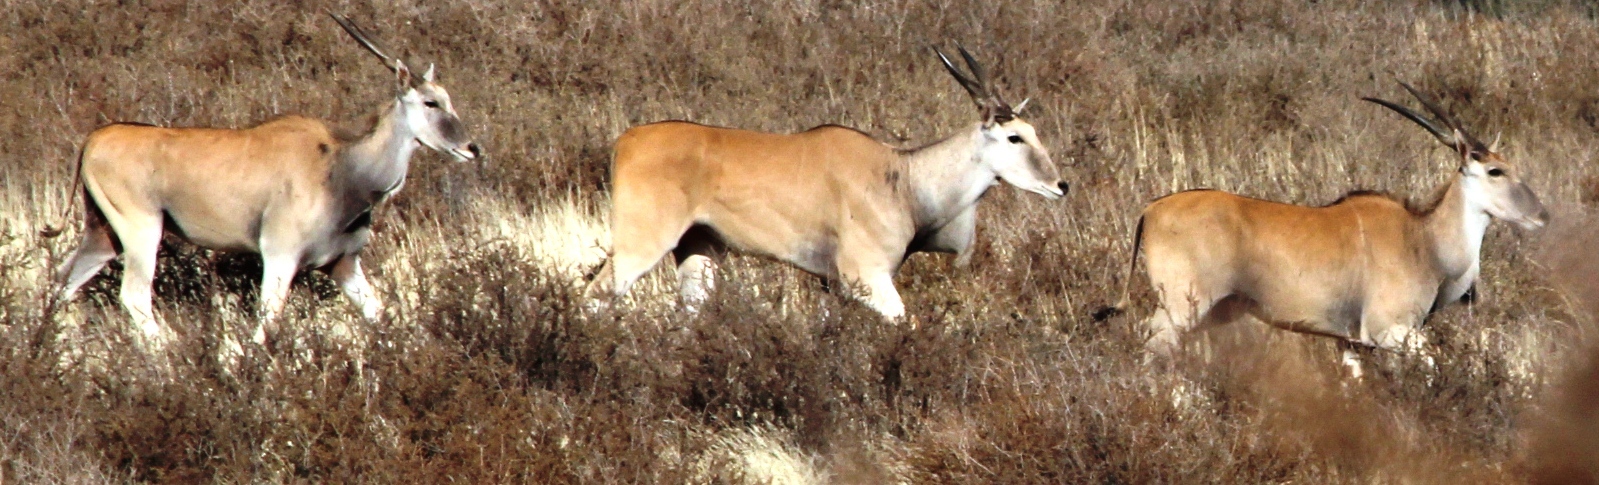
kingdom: Animalia
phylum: Chordata
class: Mammalia
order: Artiodactyla
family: Bovidae
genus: Taurotragus
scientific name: Taurotragus oryx
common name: Common eland
